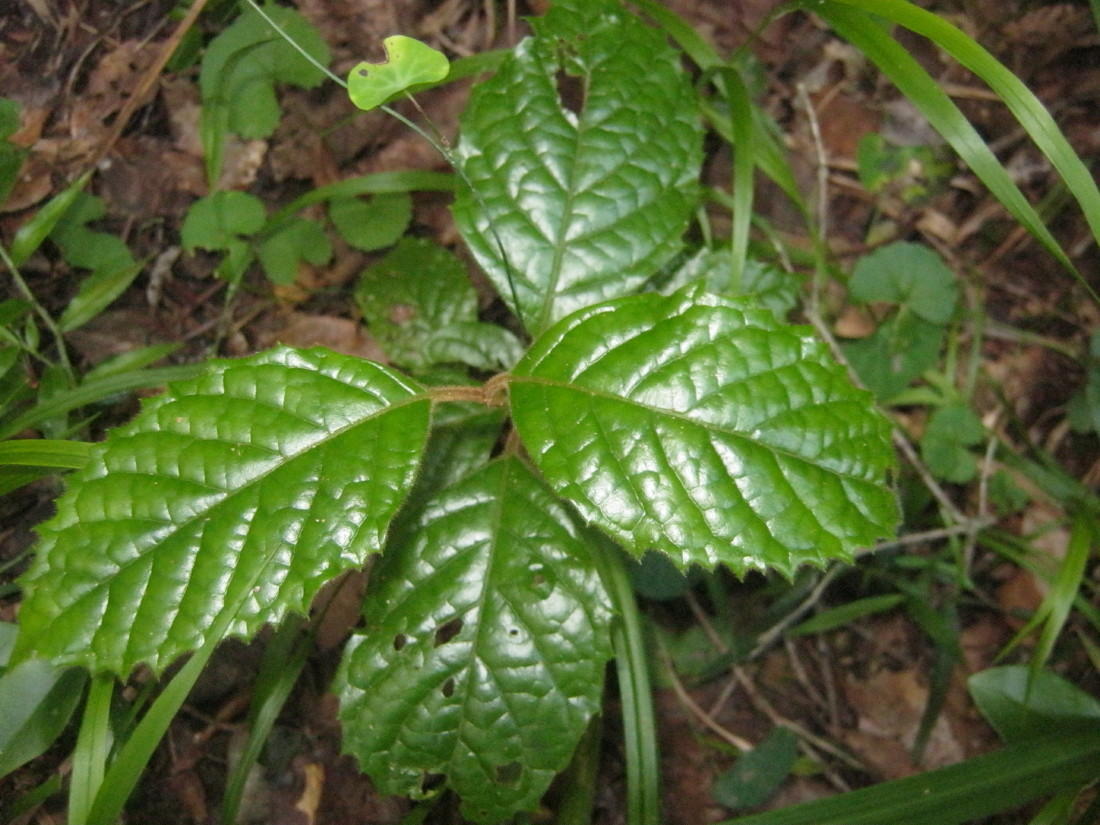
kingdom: Plantae
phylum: Tracheophyta
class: Magnoliopsida
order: Cornales
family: Curtisiaceae
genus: Curtisia
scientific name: Curtisia dentata
